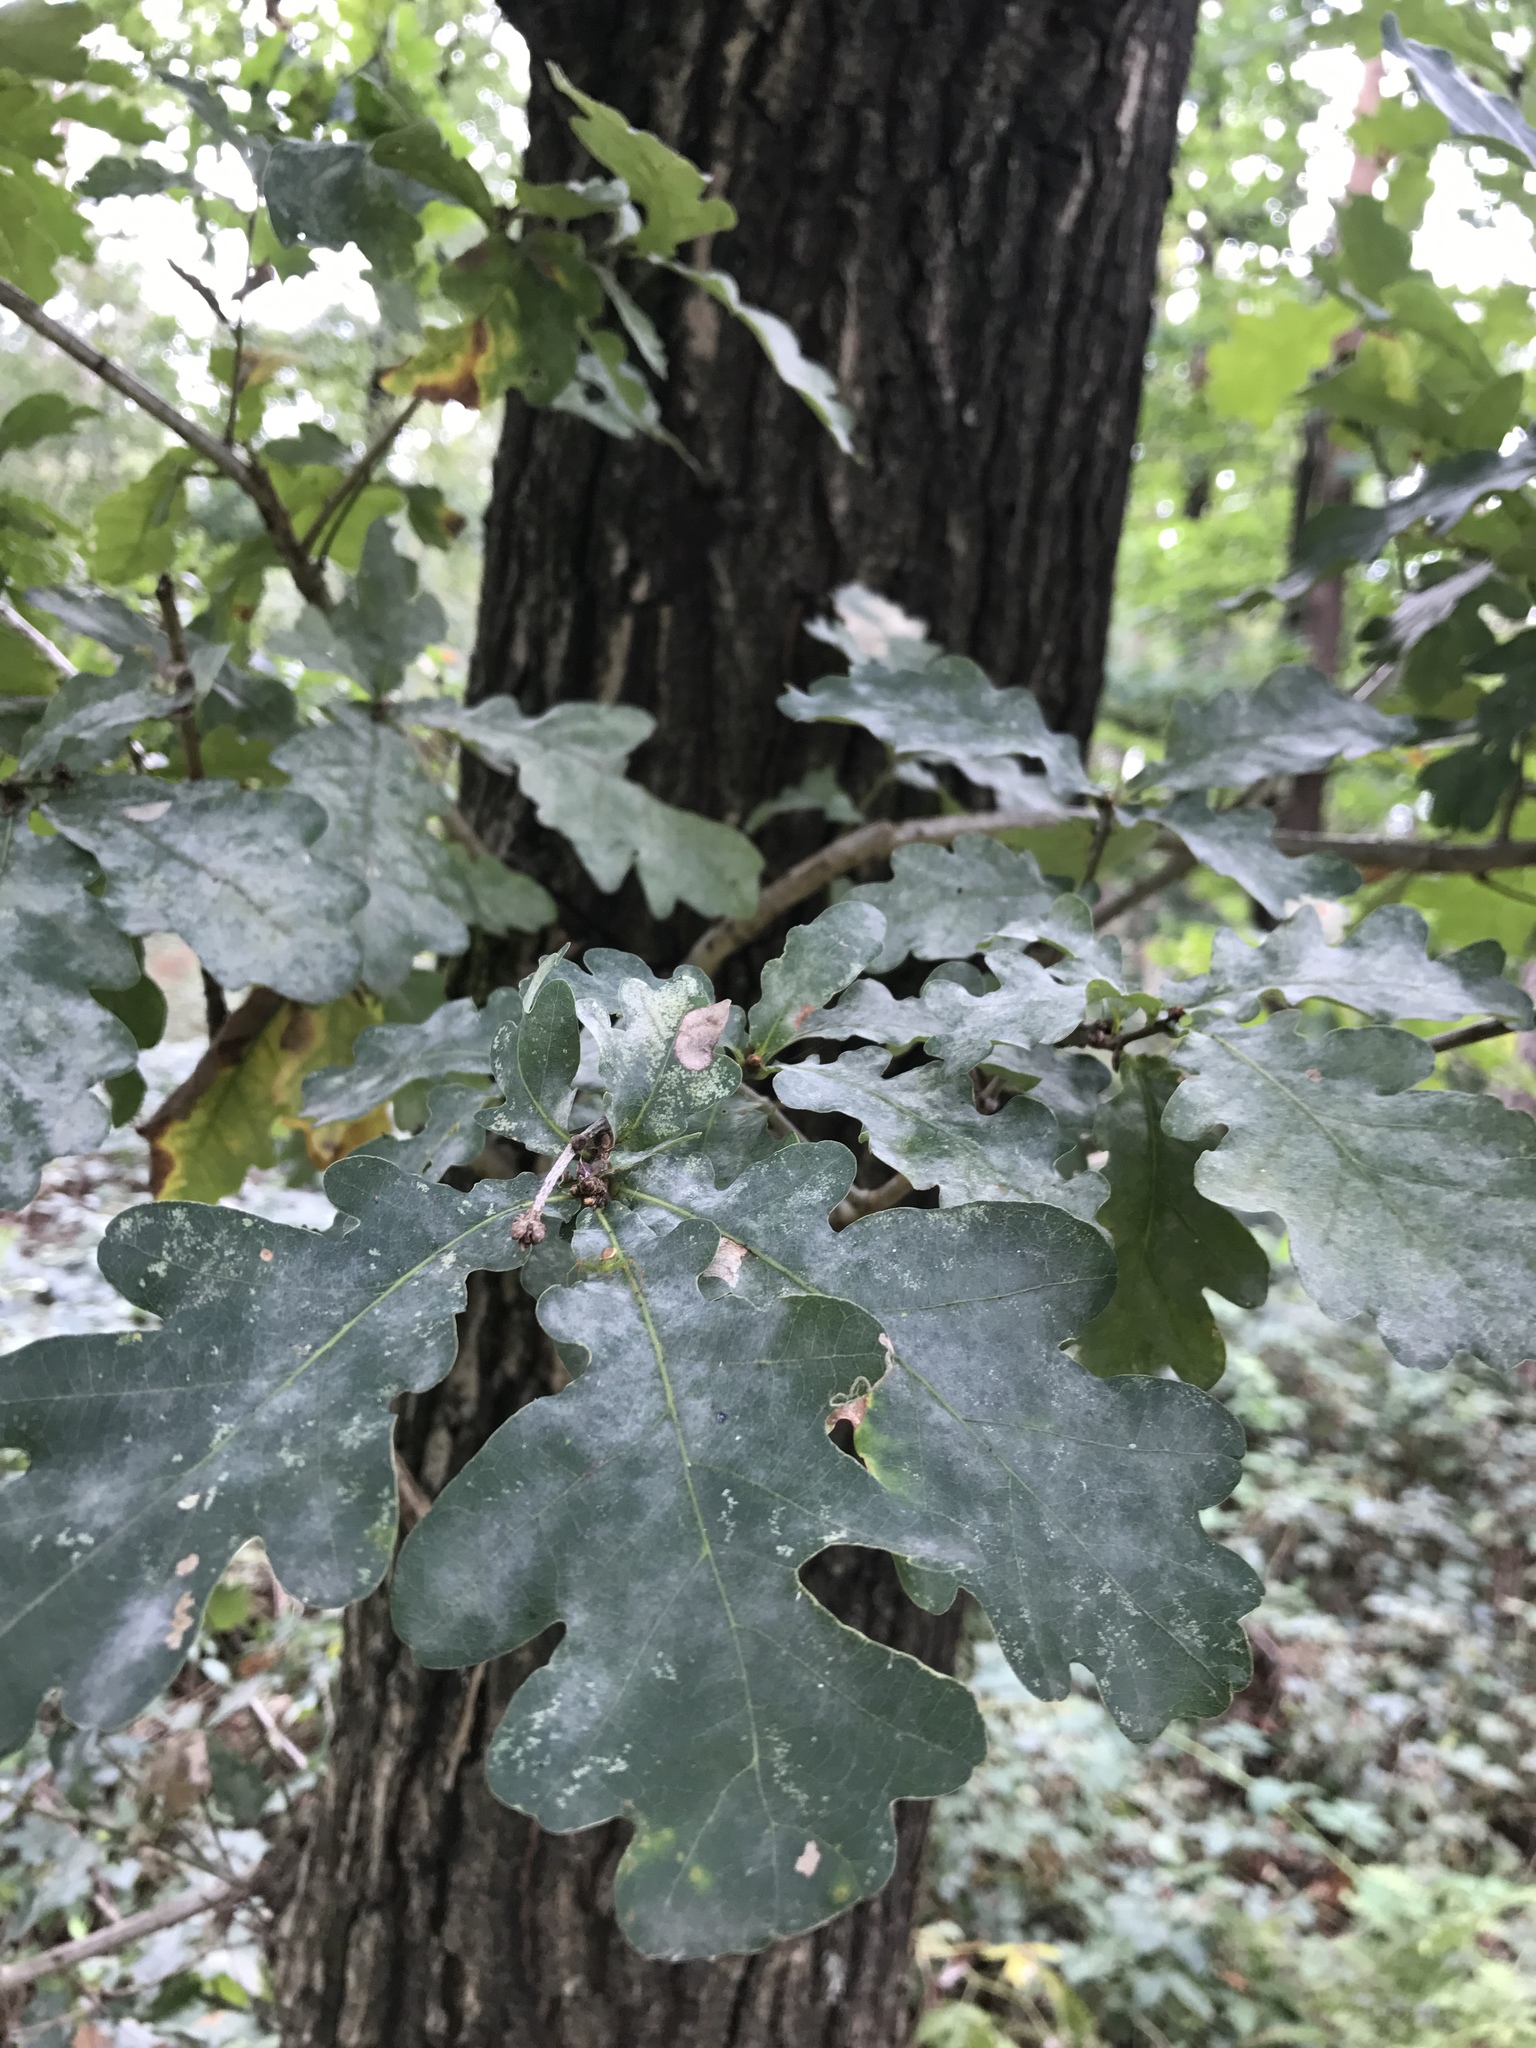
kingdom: Plantae
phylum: Tracheophyta
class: Magnoliopsida
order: Fagales
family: Fagaceae
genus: Quercus
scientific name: Quercus robur
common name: Pedunculate oak
